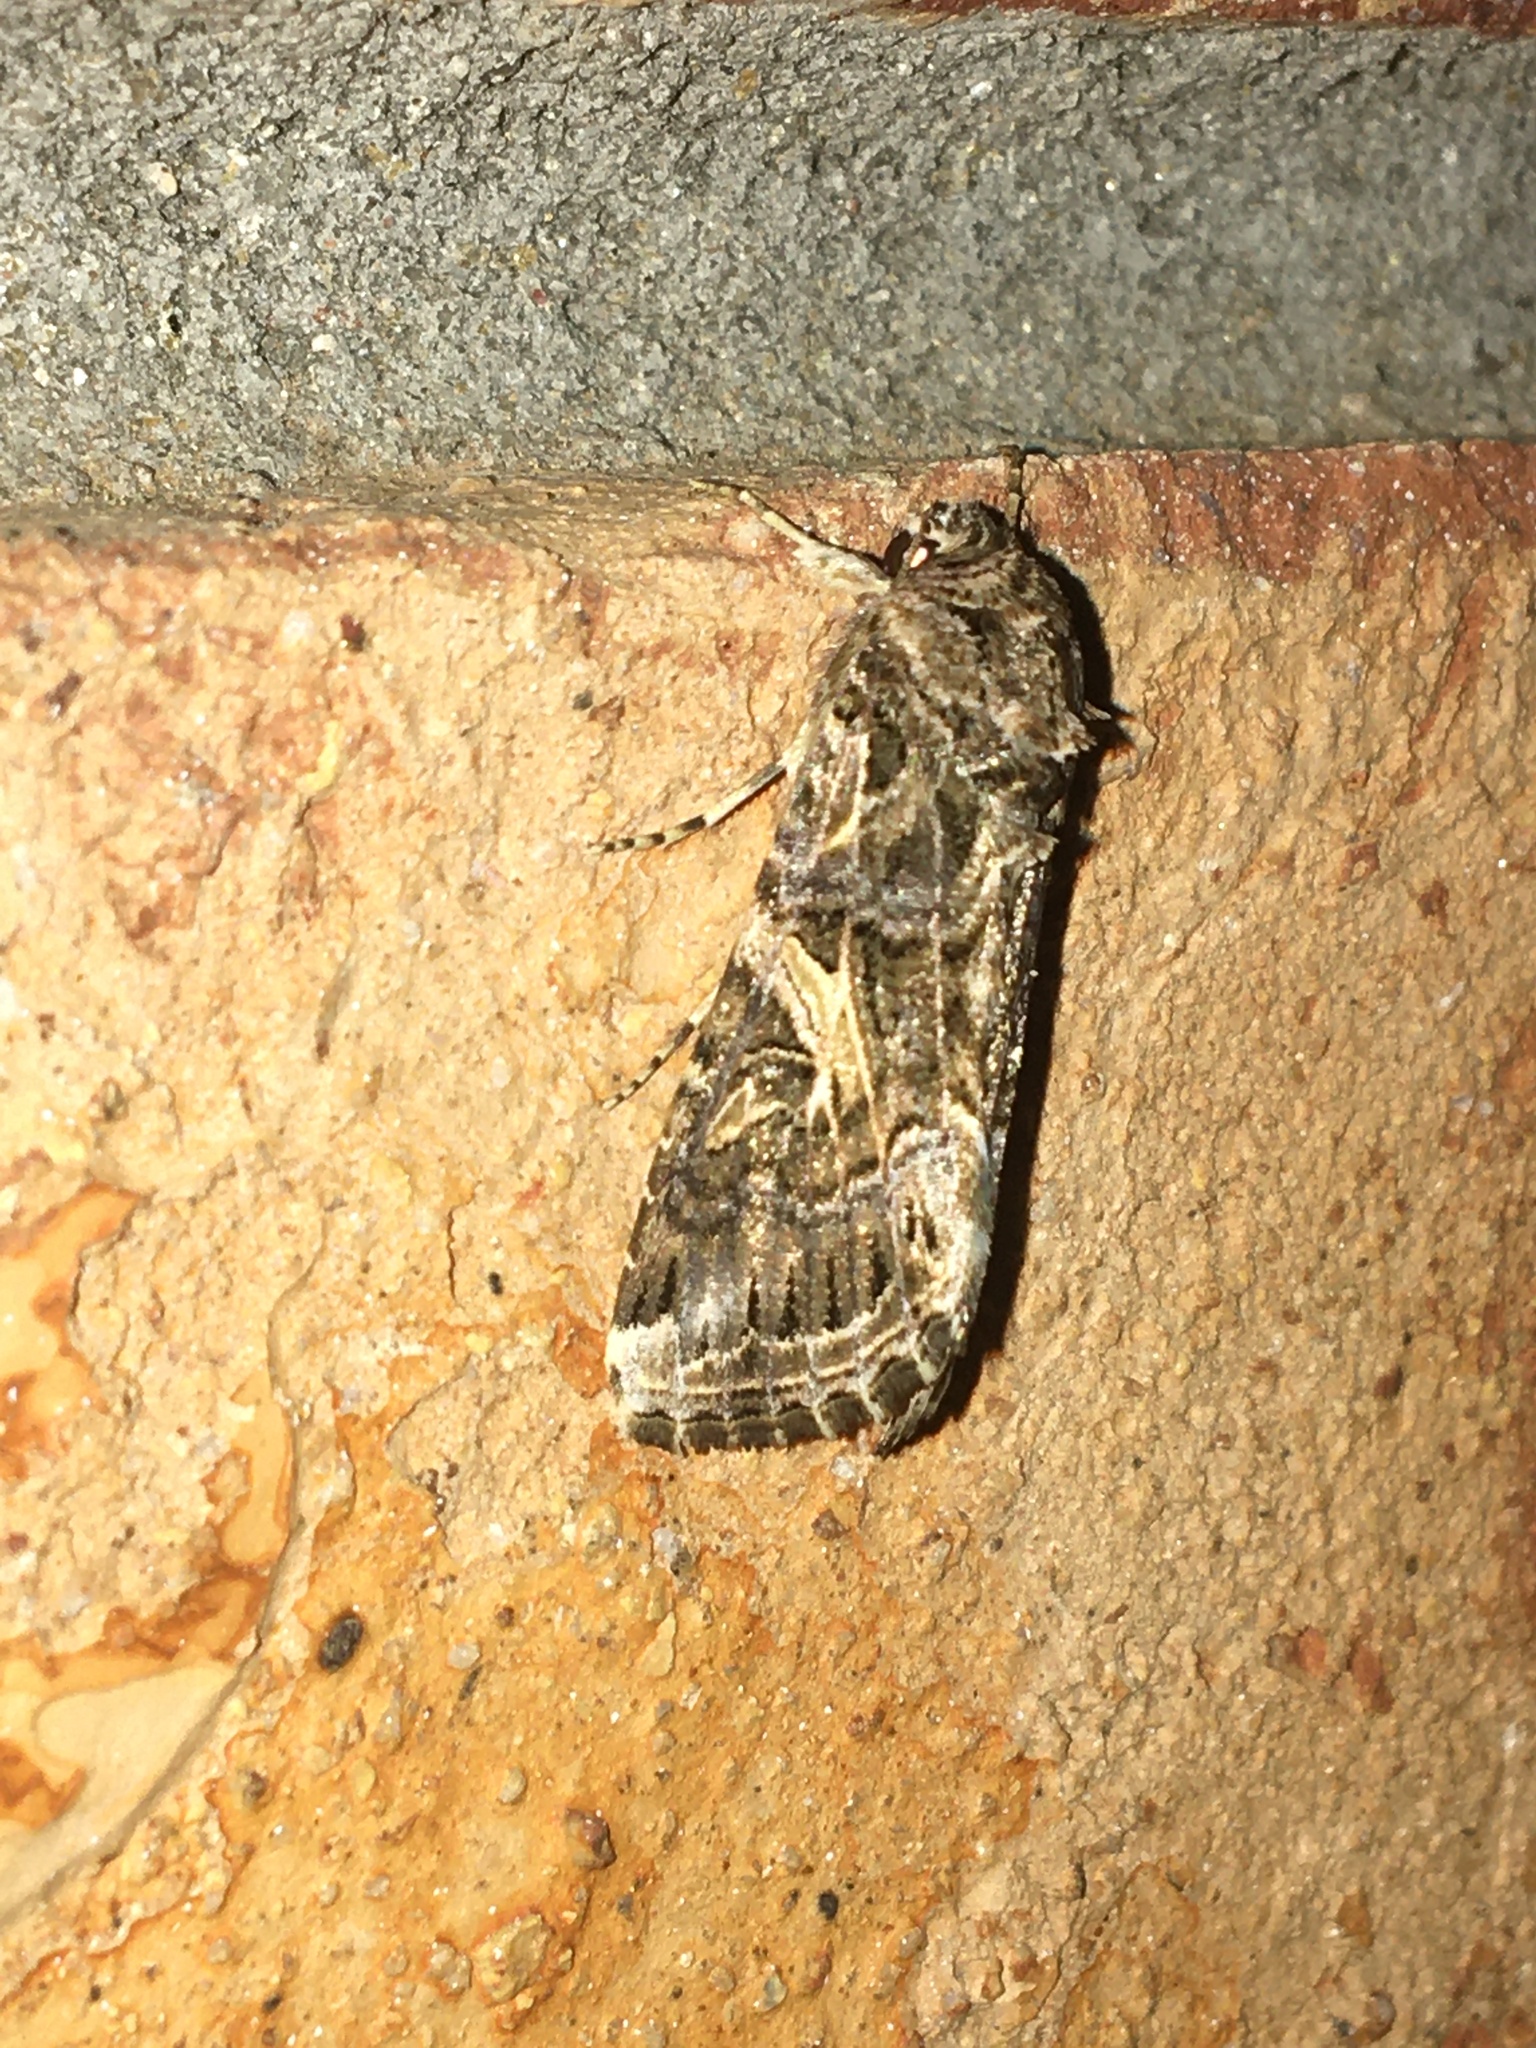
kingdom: Animalia
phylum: Arthropoda
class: Insecta
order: Lepidoptera
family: Noctuidae
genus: Spodoptera
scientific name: Spodoptera ornithogalli
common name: Yellow-striped armyworm
